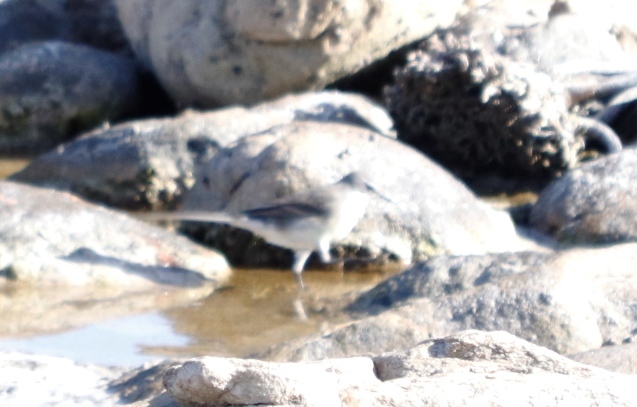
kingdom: Animalia
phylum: Chordata
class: Aves
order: Passeriformes
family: Motacillidae
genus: Motacilla
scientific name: Motacilla capensis
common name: Cape wagtail
